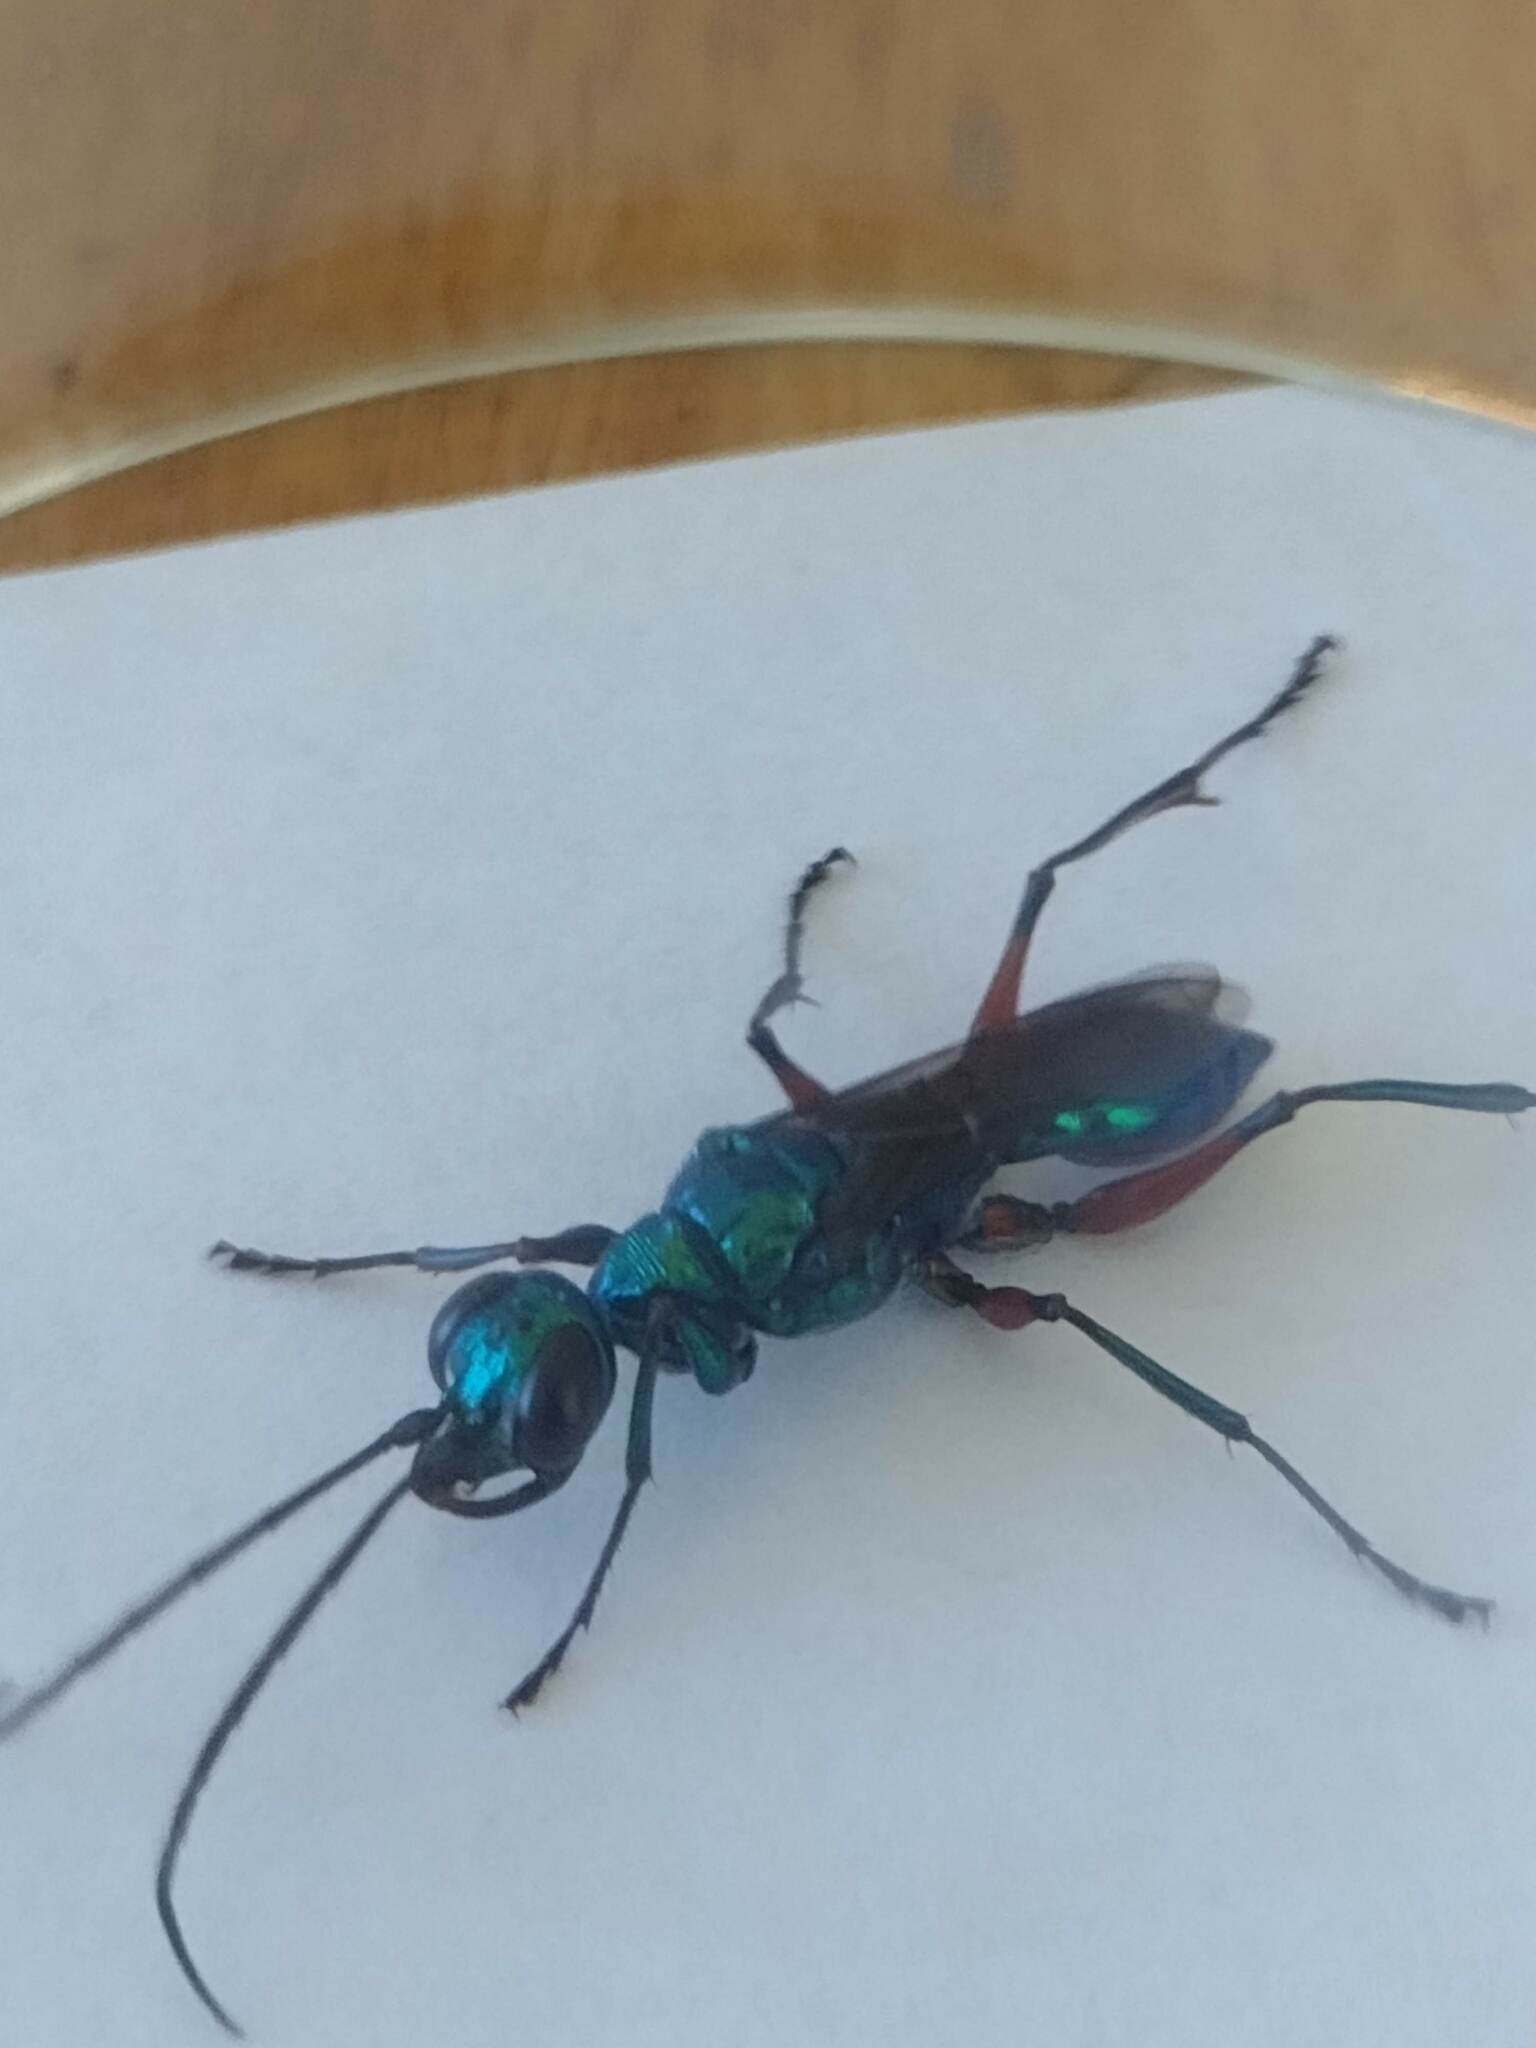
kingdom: Animalia
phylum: Arthropoda
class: Insecta
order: Hymenoptera
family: Ampulicidae
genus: Ampulex
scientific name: Ampulex compressa
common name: Emerald cockroach wasp
